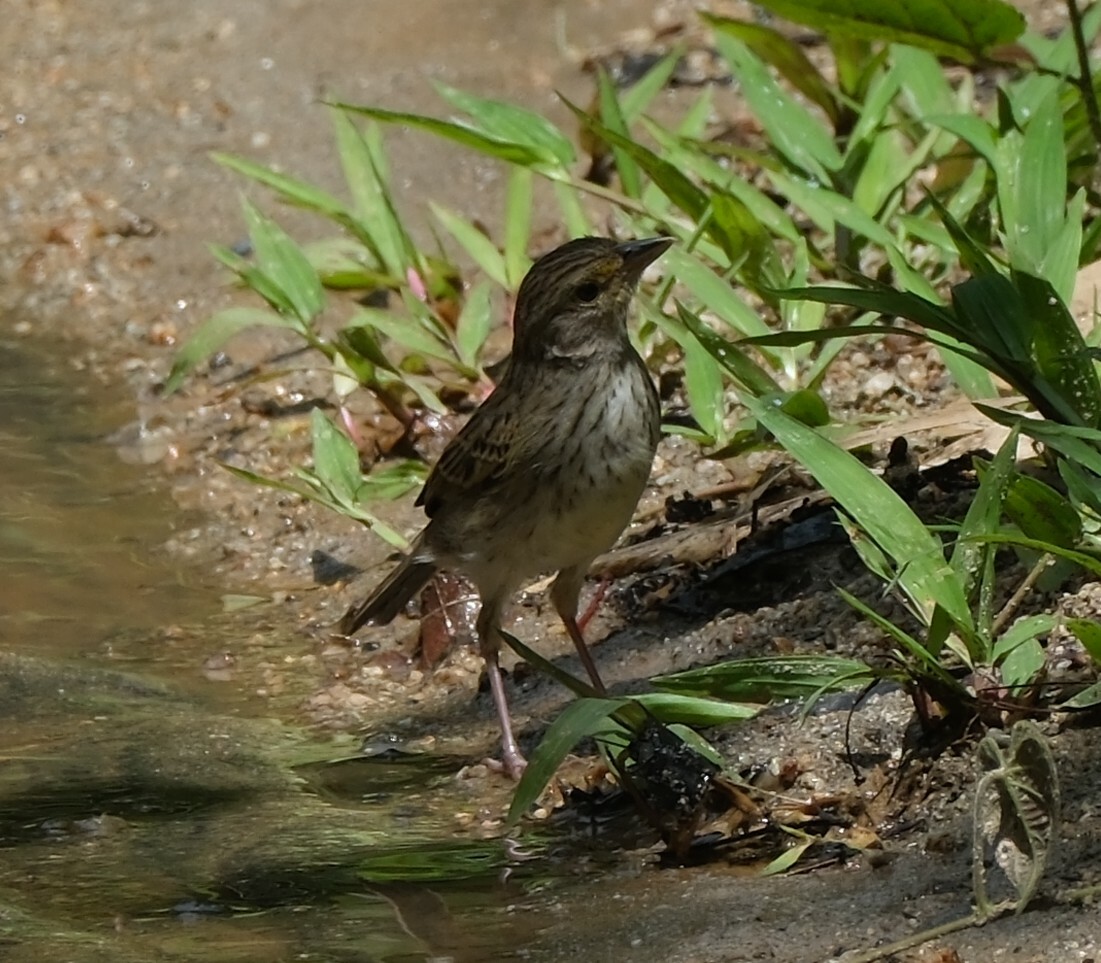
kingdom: Animalia
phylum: Chordata
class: Aves
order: Passeriformes
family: Passerellidae
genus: Ammodramus
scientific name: Ammodramus aurifrons
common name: Yellow-browed sparrow
